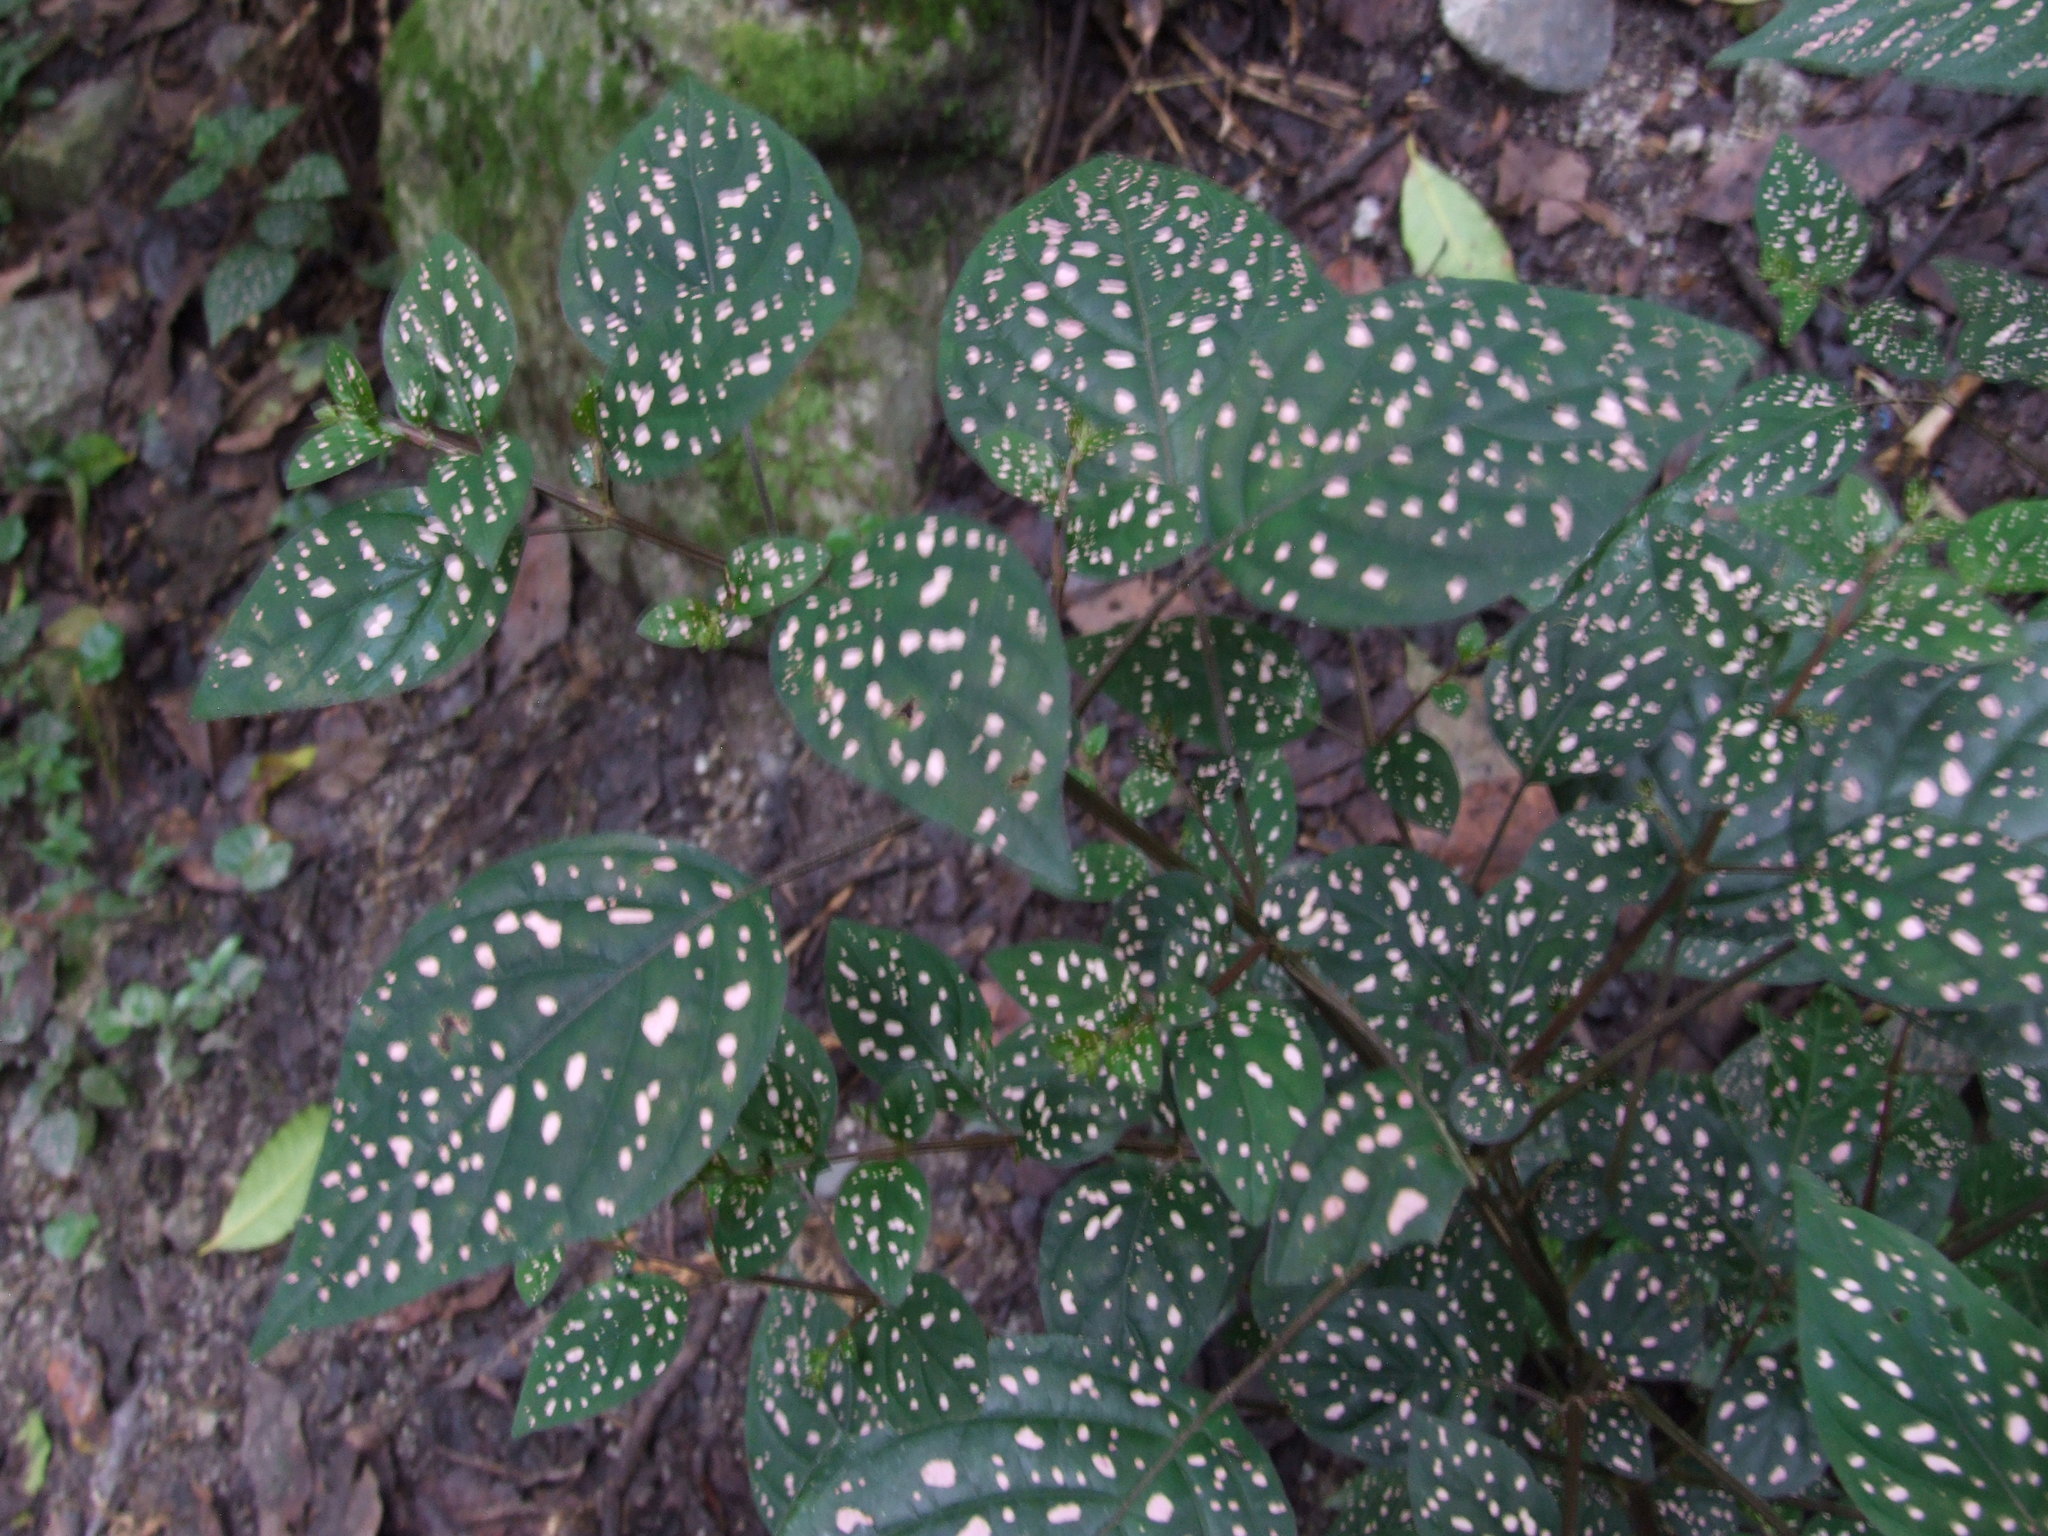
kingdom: Plantae
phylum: Tracheophyta
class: Magnoliopsida
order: Lamiales
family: Acanthaceae
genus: Hypoestes
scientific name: Hypoestes phyllostachya
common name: Polkadot-plant
